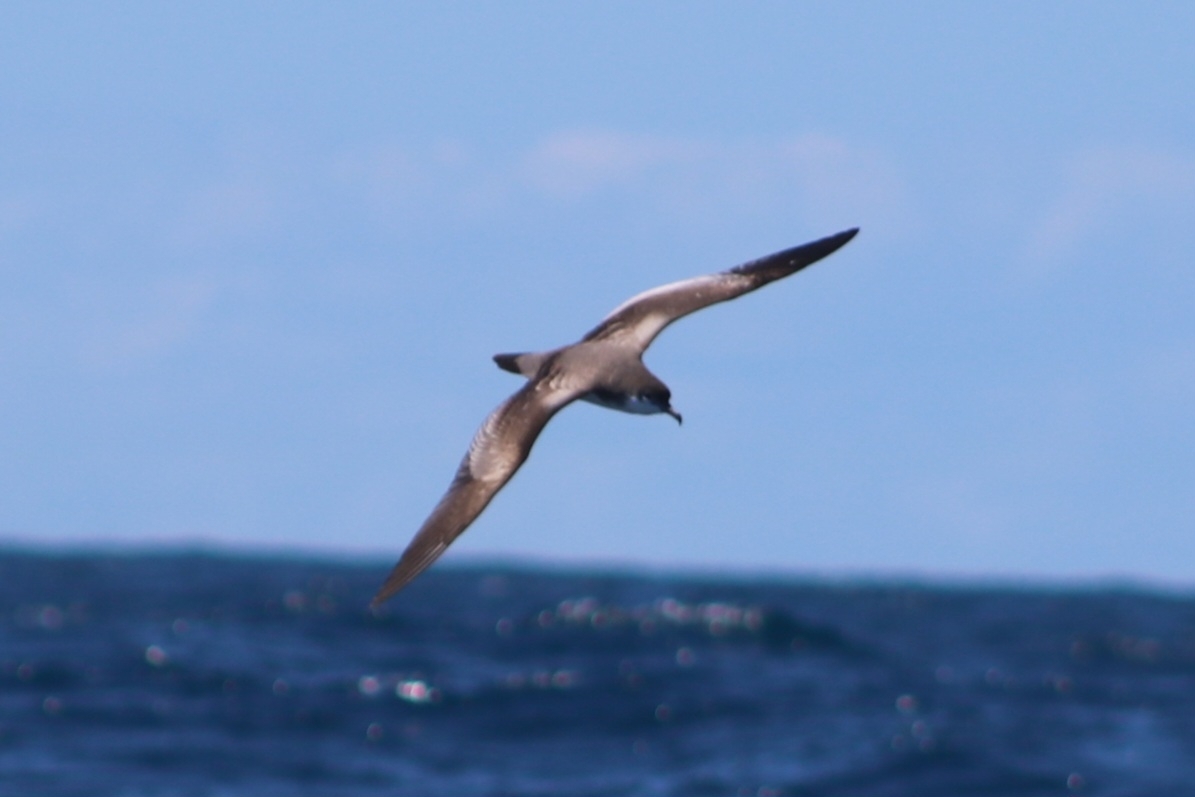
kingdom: Animalia
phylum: Chordata
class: Aves
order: Procellariiformes
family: Procellariidae
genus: Puffinus
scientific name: Puffinus bulleri
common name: Buller's shearwater
